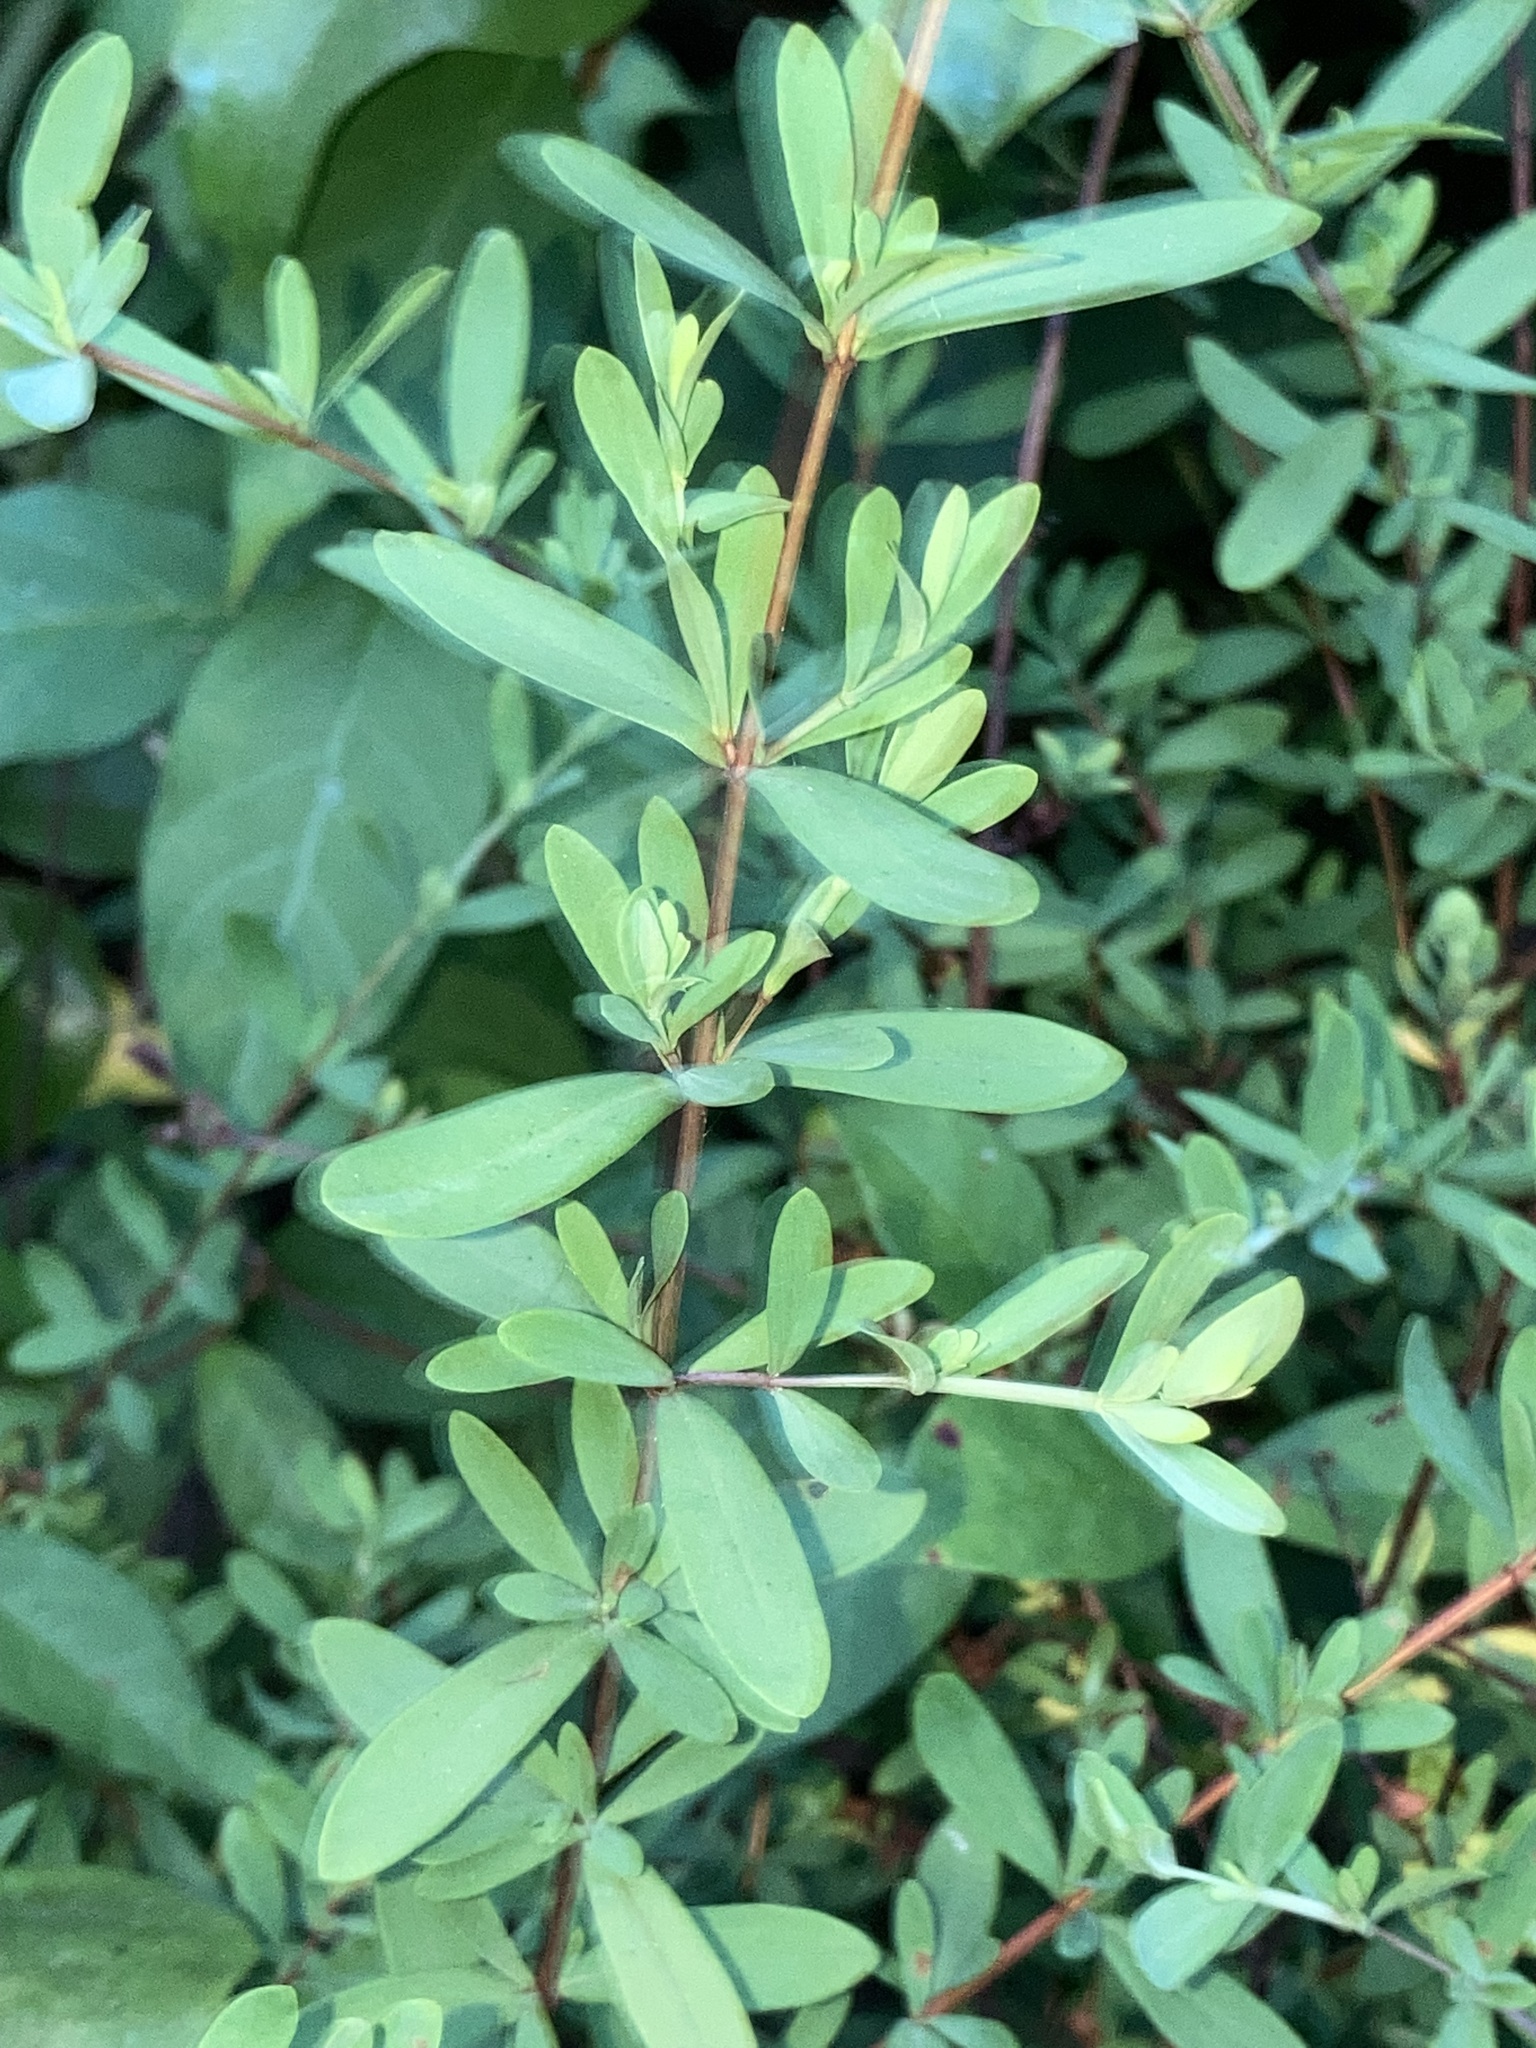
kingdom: Plantae
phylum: Tracheophyta
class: Magnoliopsida
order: Malpighiales
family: Hypericaceae
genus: Hypericum
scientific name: Hypericum hypericoides
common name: St. andrew's cross
